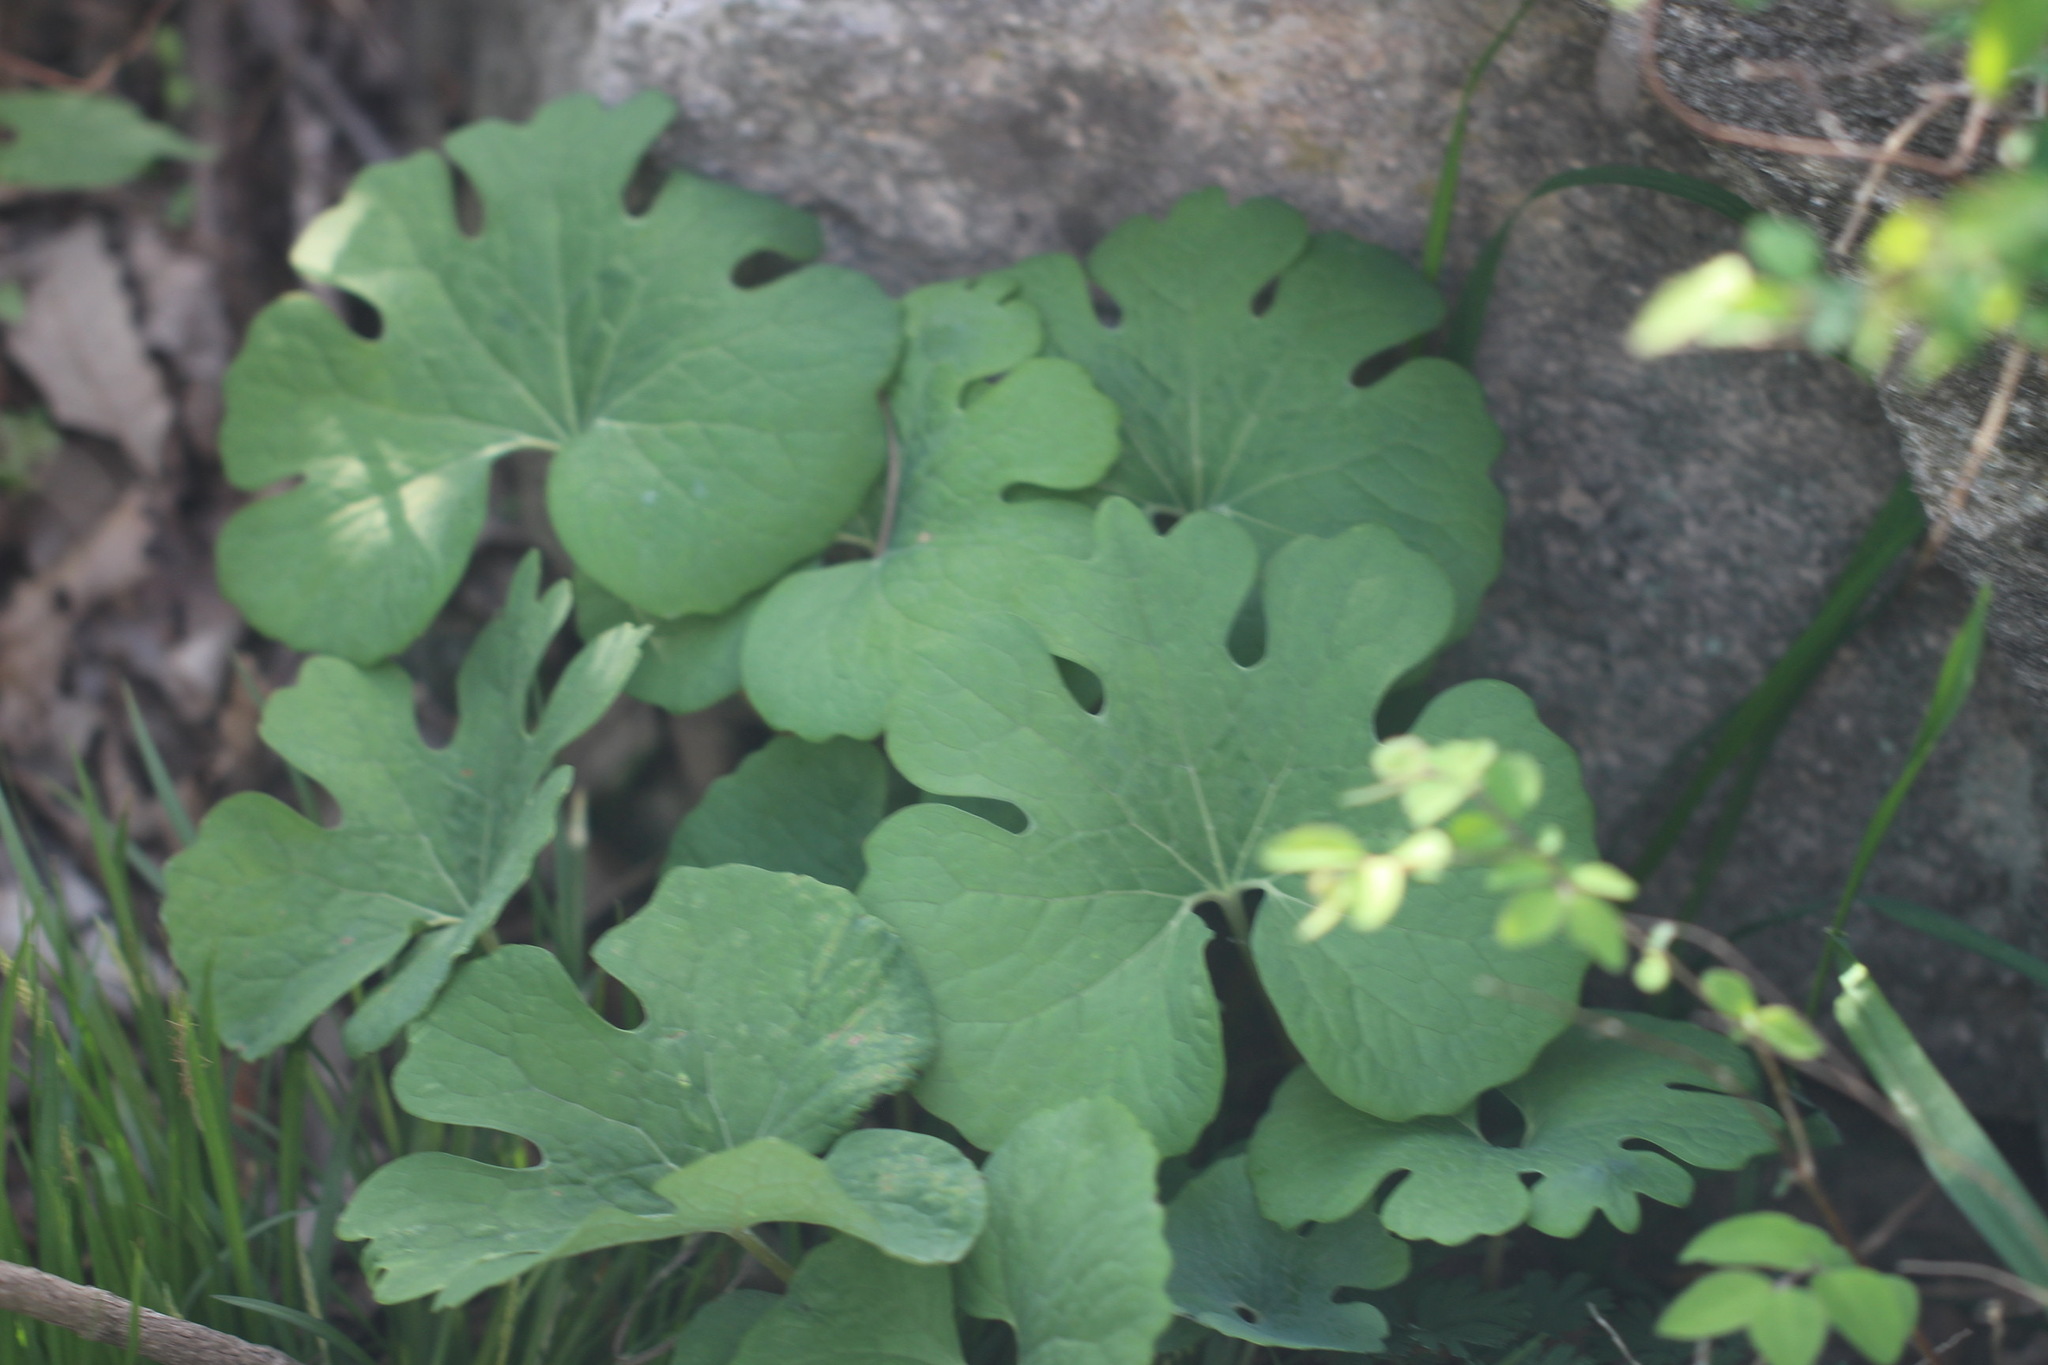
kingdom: Plantae
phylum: Tracheophyta
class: Magnoliopsida
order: Ranunculales
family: Papaveraceae
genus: Sanguinaria
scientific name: Sanguinaria canadensis
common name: Bloodroot
